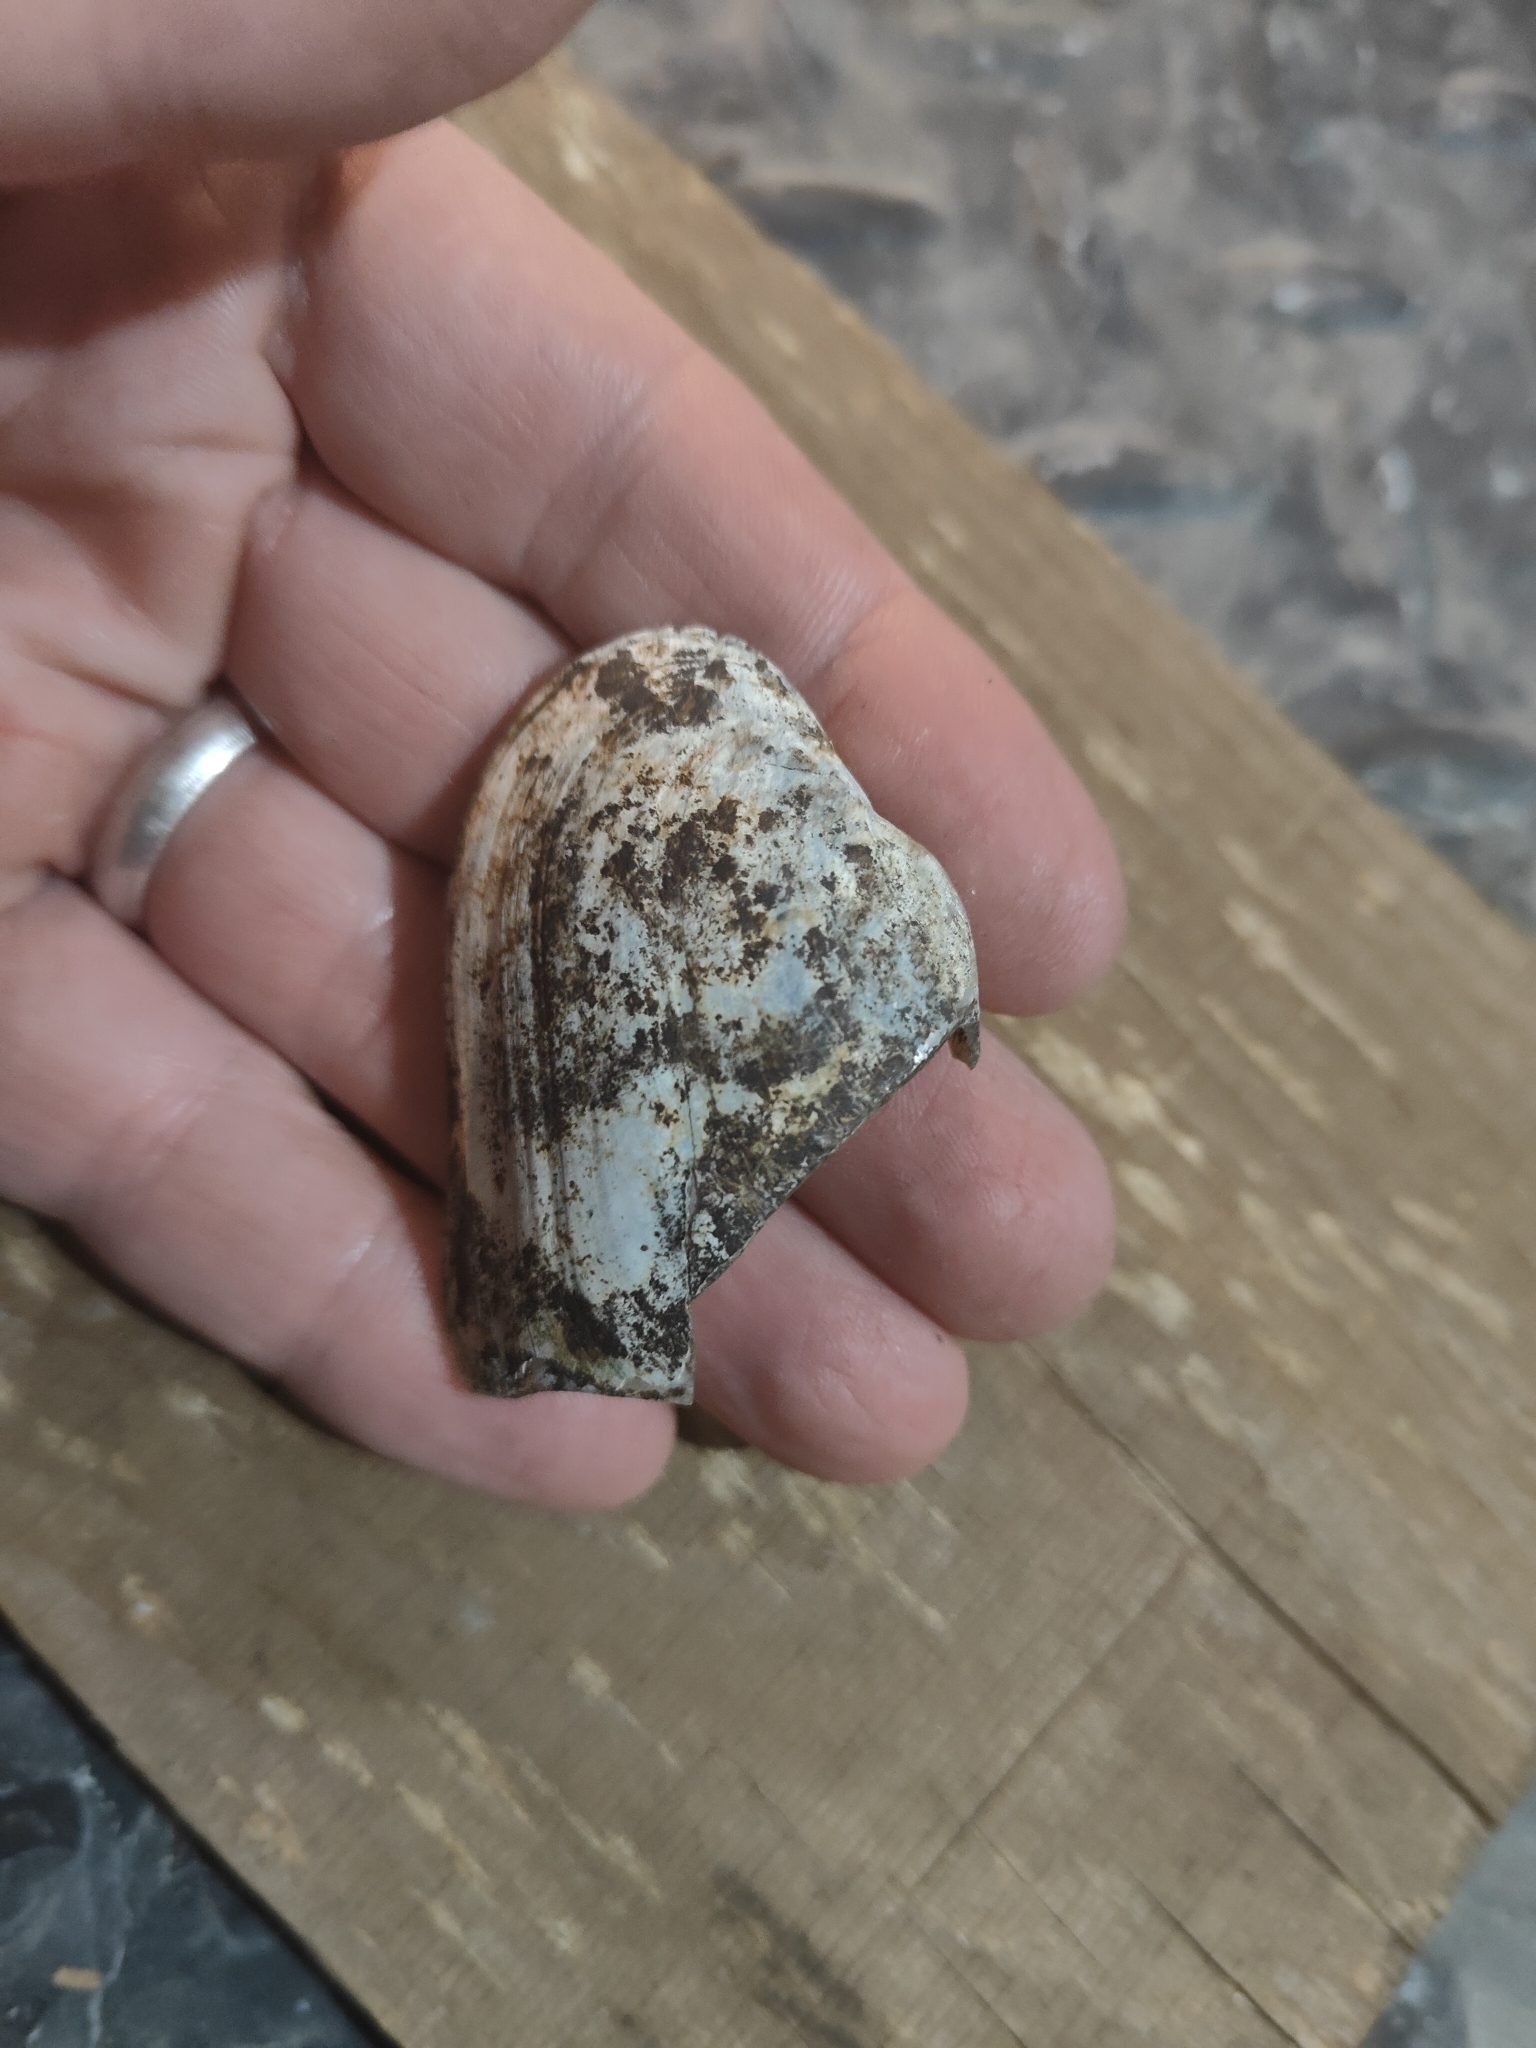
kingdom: Animalia
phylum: Mollusca
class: Bivalvia
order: Unionida
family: Unionidae
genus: Lampsilis
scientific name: Lampsilis siliquoidea
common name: Fatmucket
